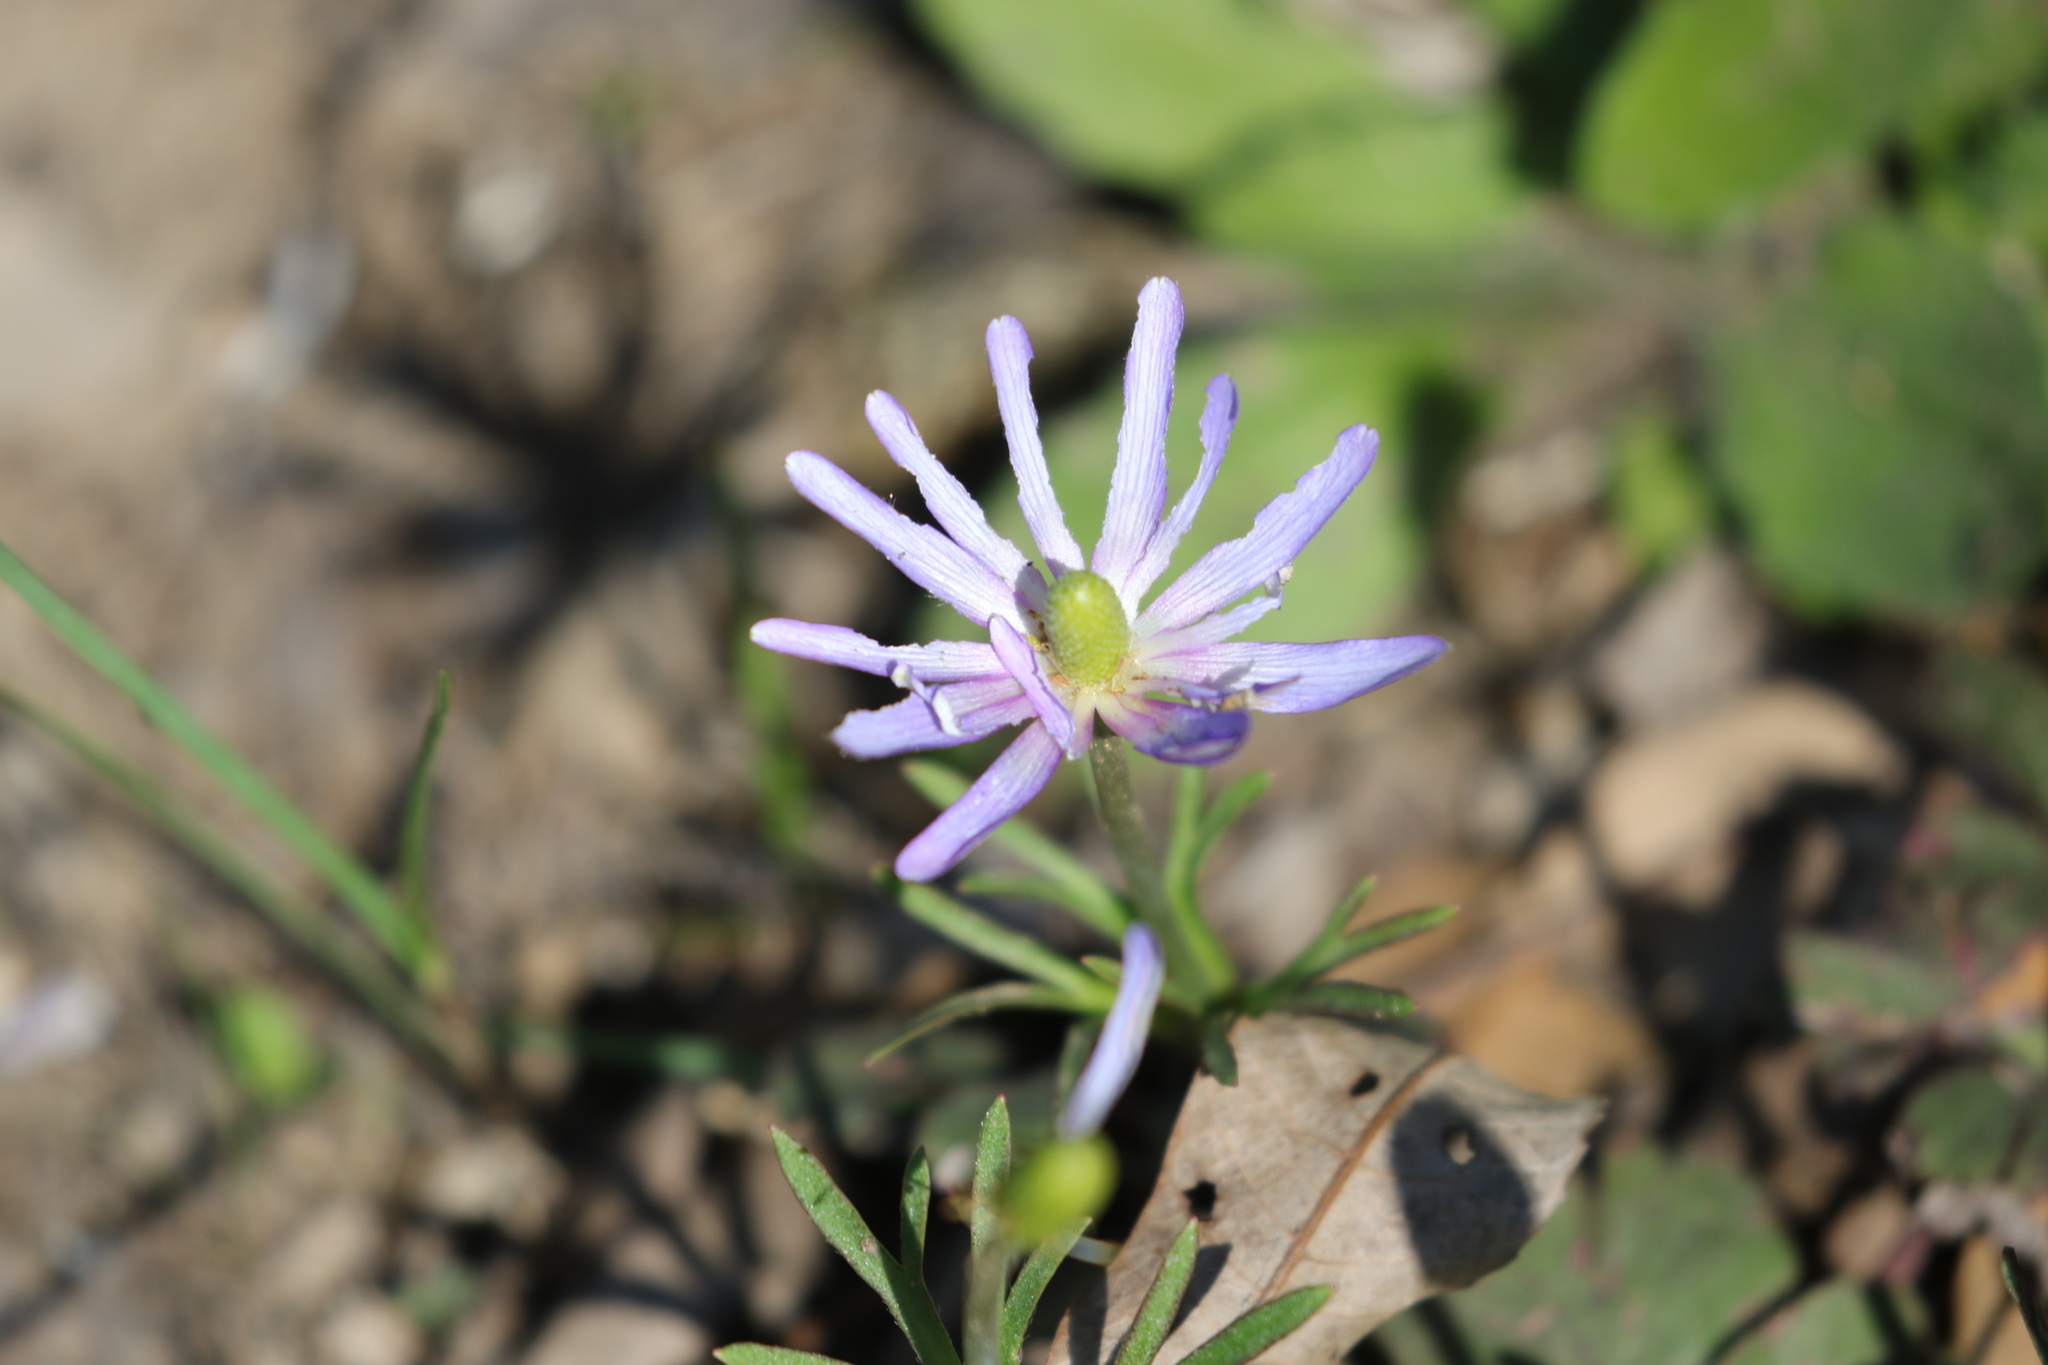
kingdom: Plantae
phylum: Tracheophyta
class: Magnoliopsida
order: Ranunculales
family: Ranunculaceae
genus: Anemone
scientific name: Anemone berlandieri
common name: Ten-petal anemone
